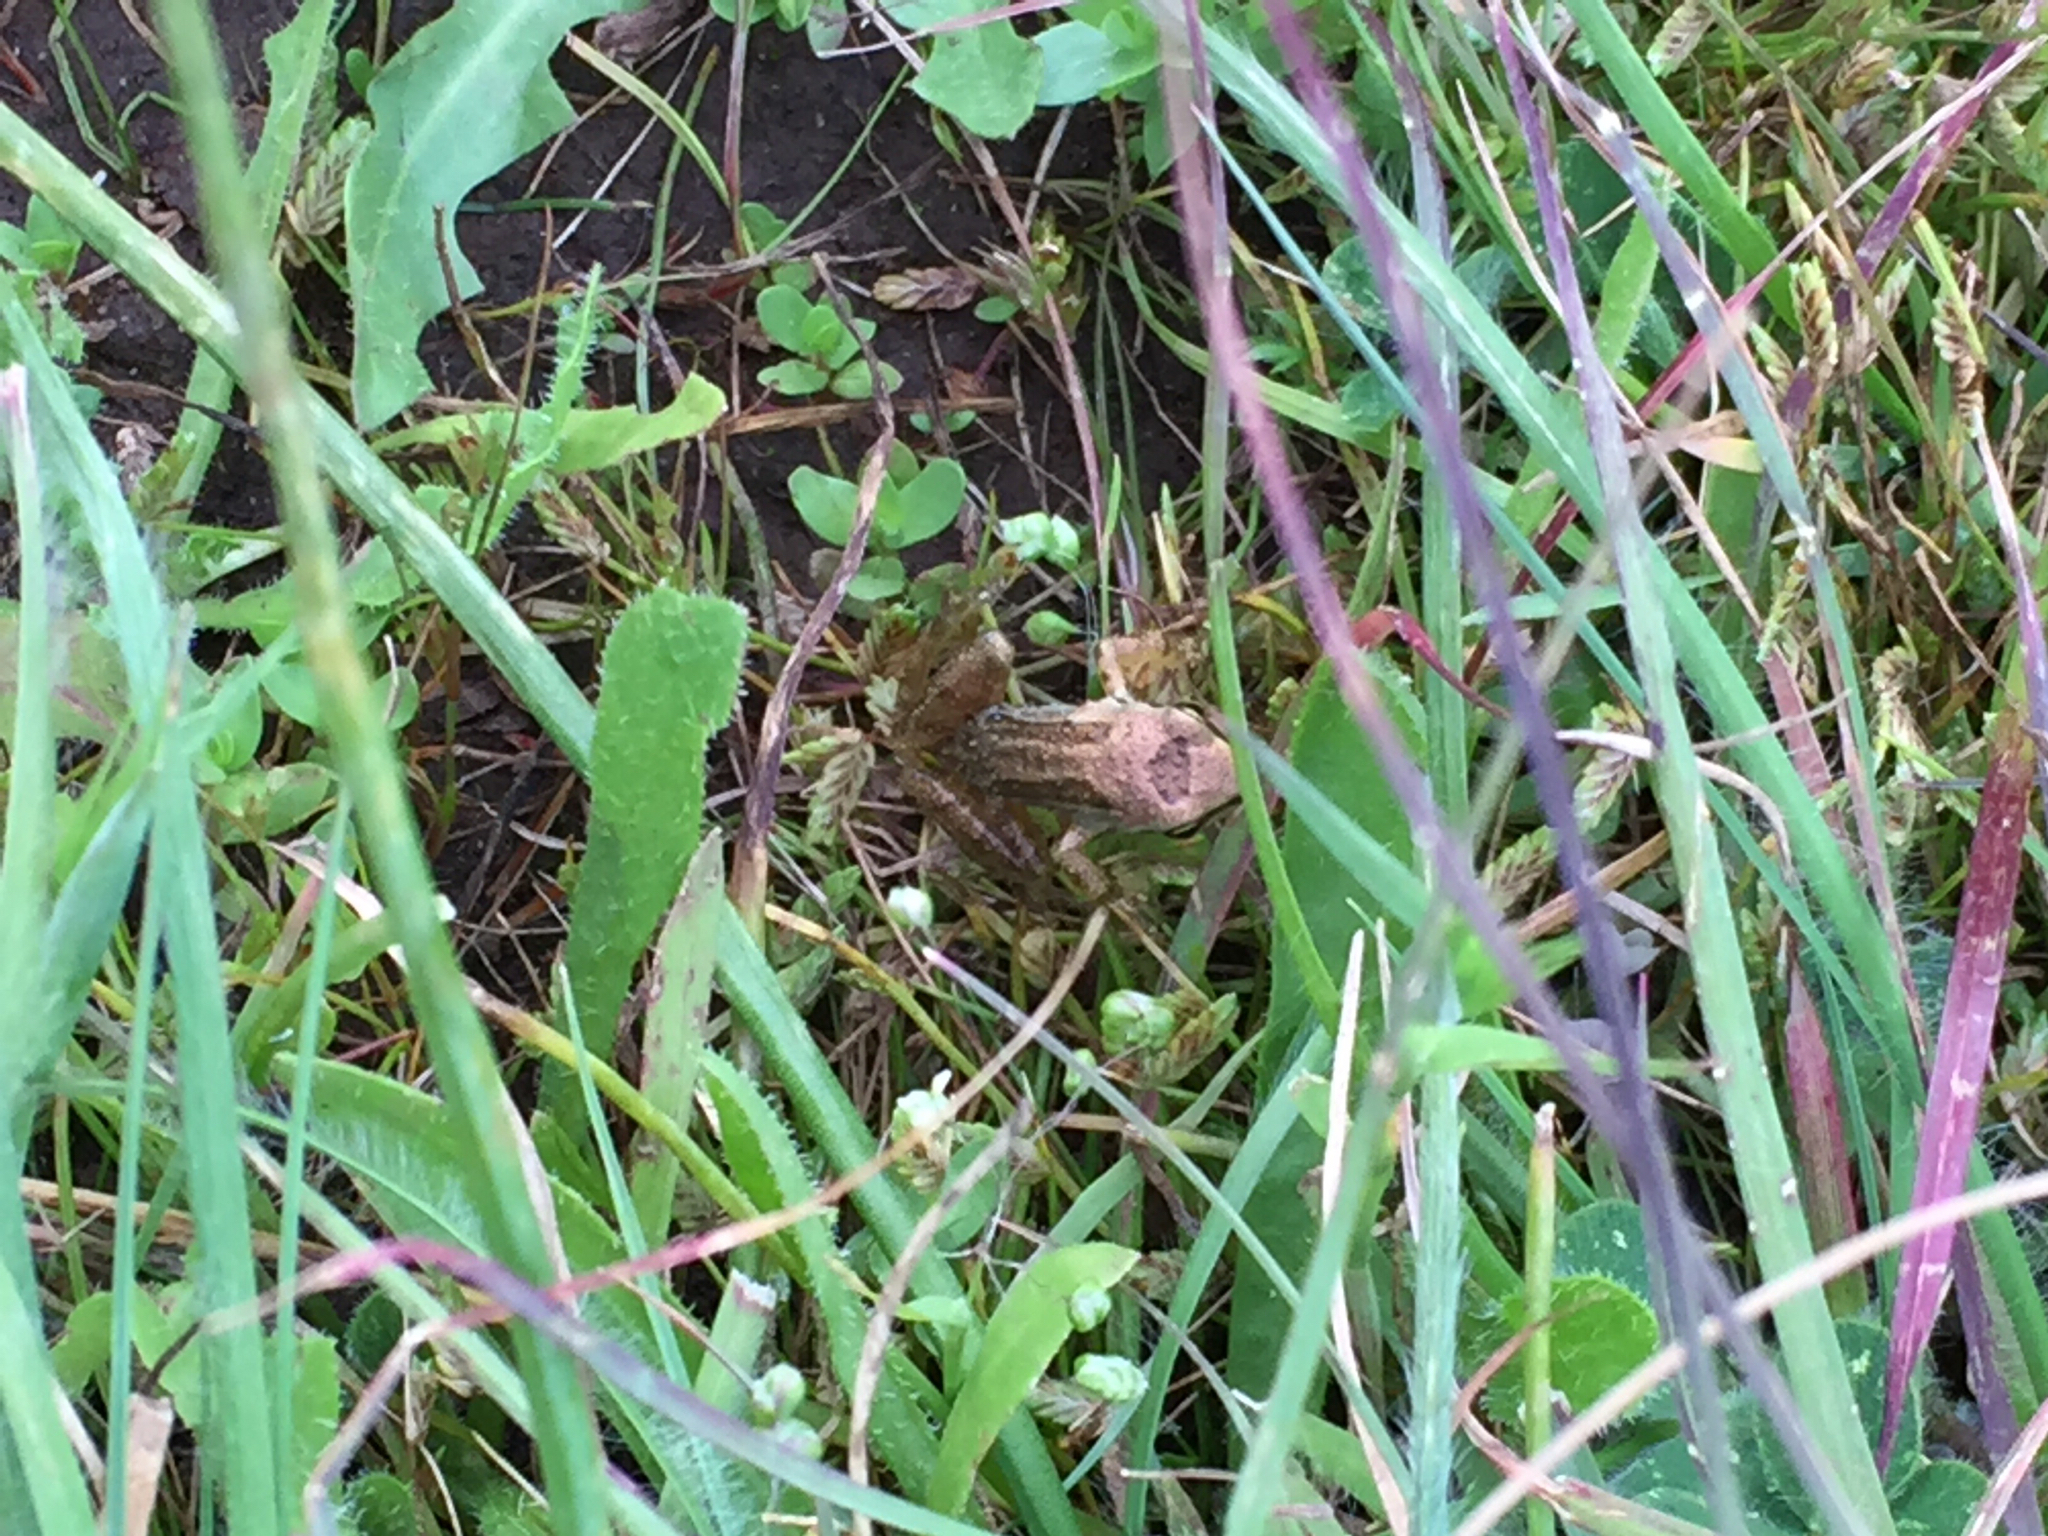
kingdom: Animalia
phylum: Chordata
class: Amphibia
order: Anura
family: Hylidae
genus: Pseudacris
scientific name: Pseudacris regilla
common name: Pacific chorus frog
